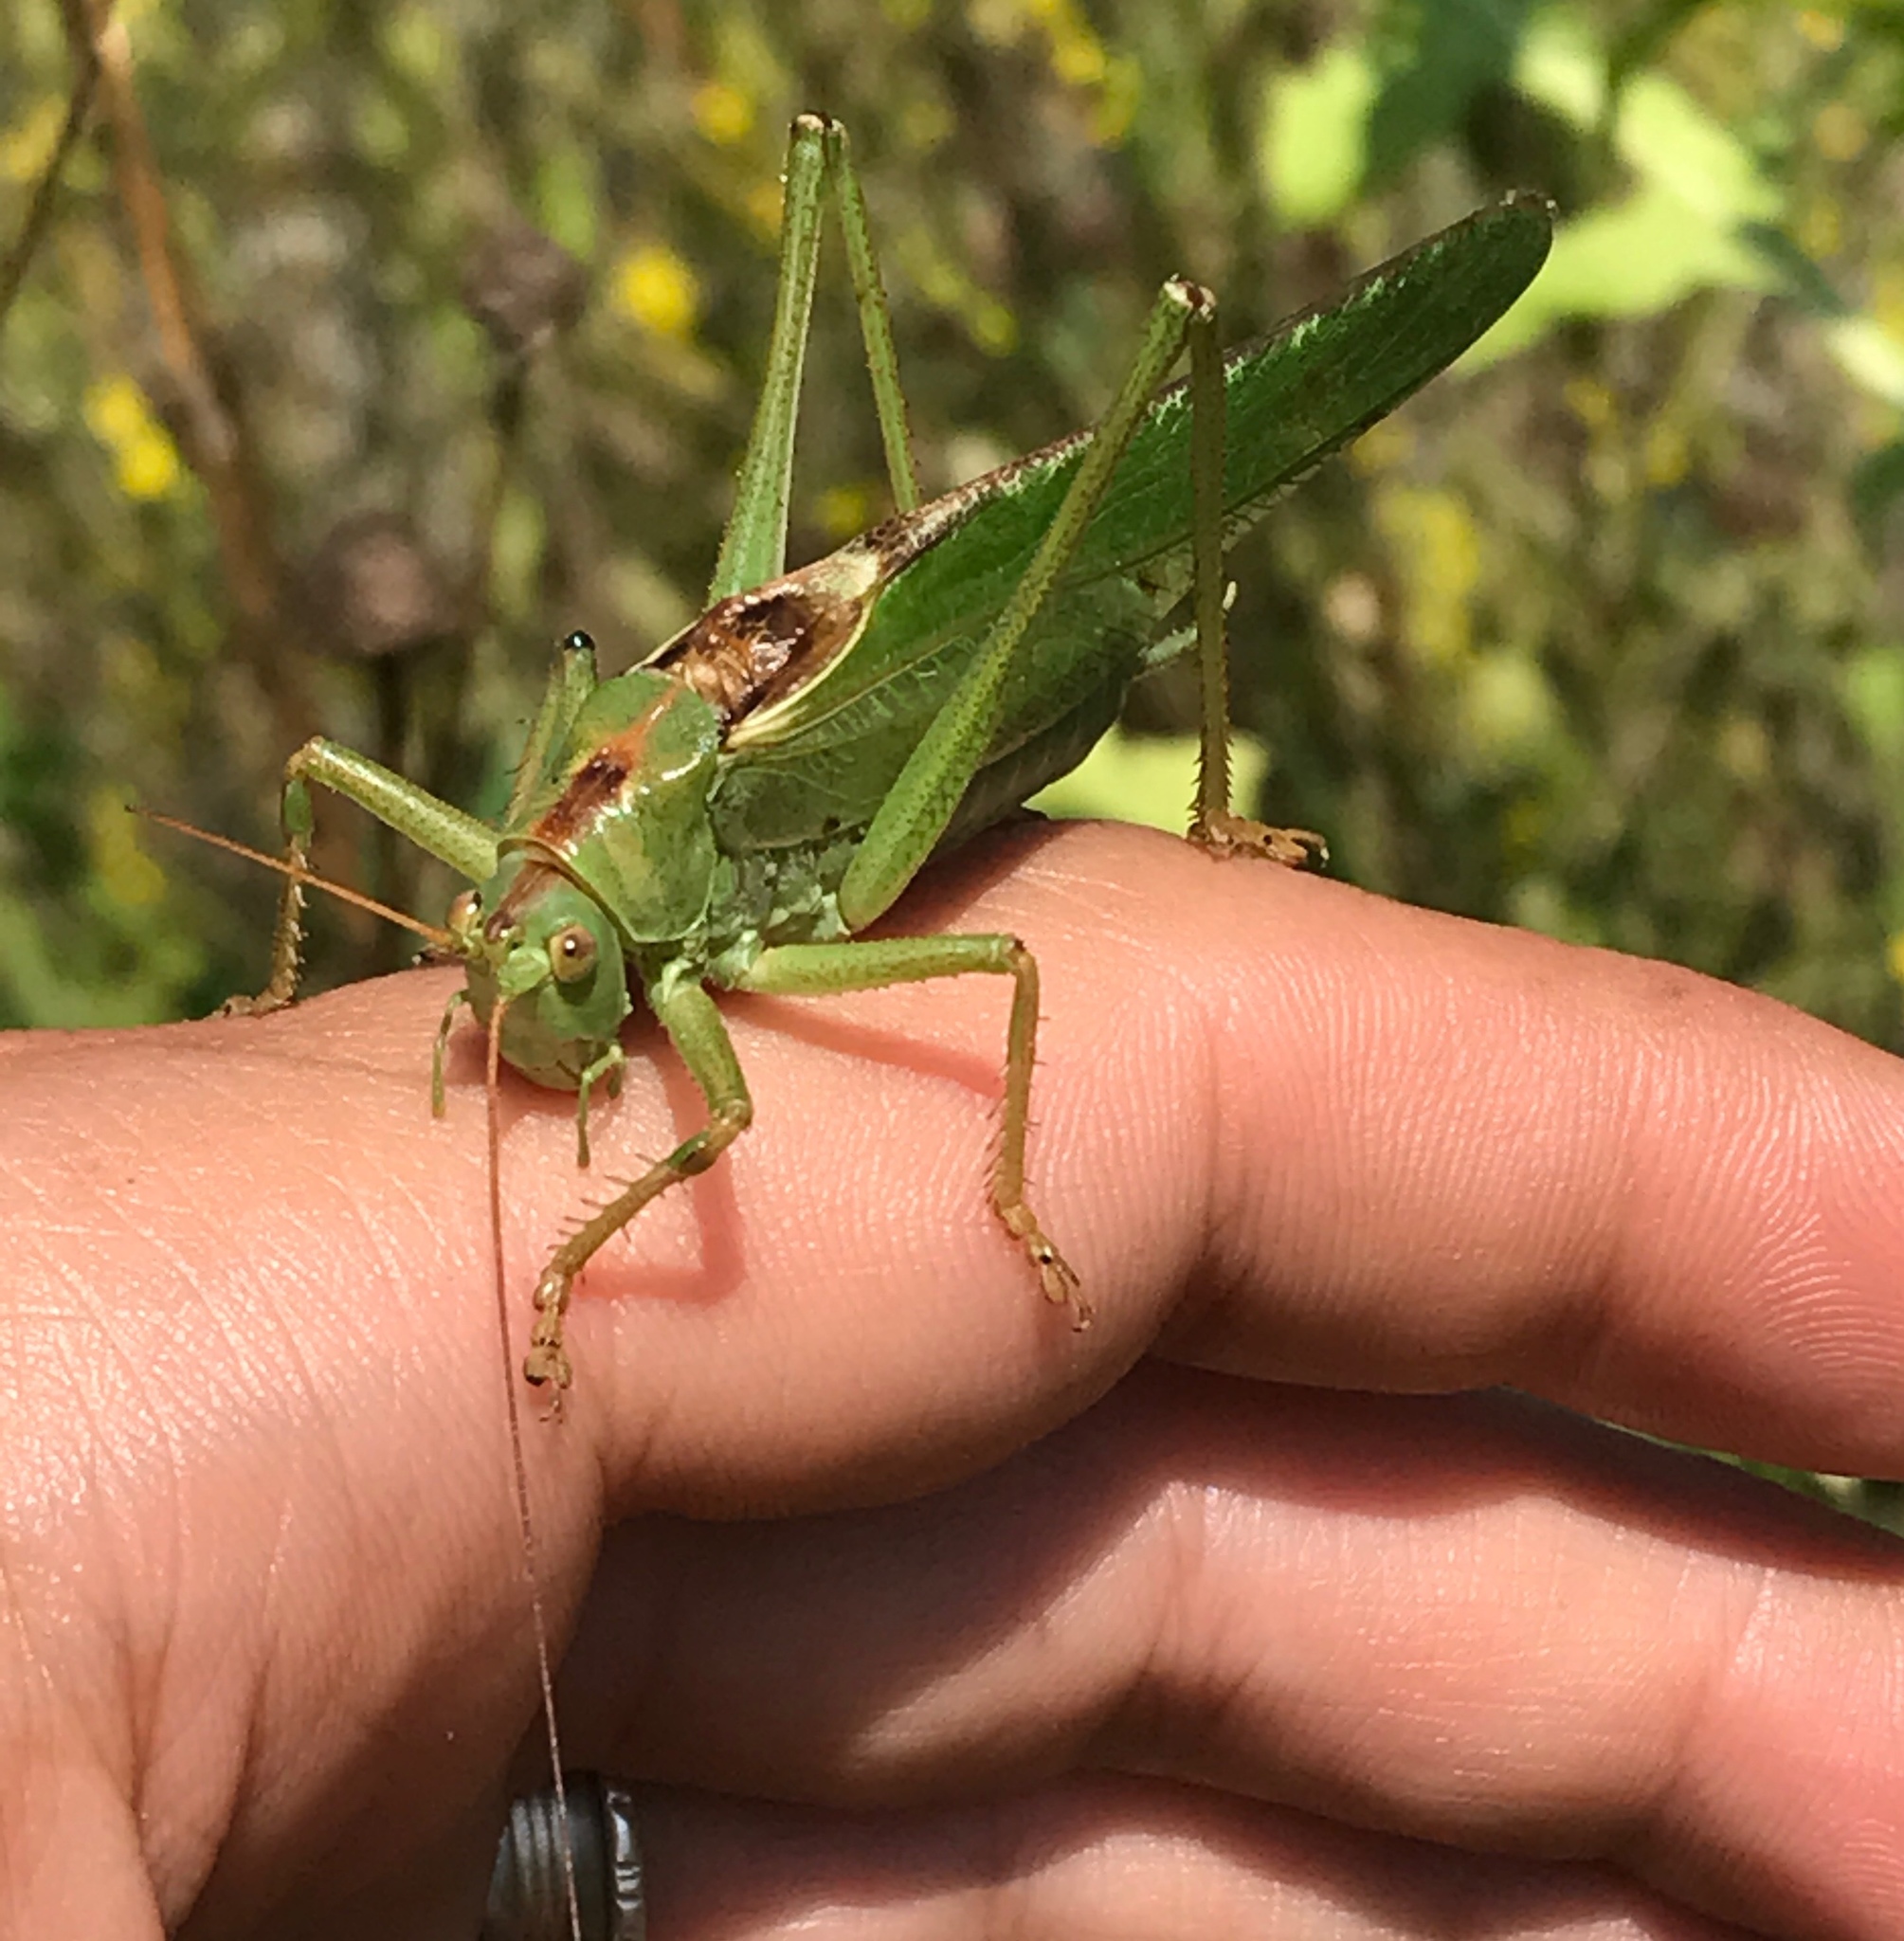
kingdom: Animalia
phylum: Arthropoda
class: Insecta
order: Orthoptera
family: Tettigoniidae
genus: Tettigonia
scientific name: Tettigonia viridissima
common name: Great green bush-cricket
